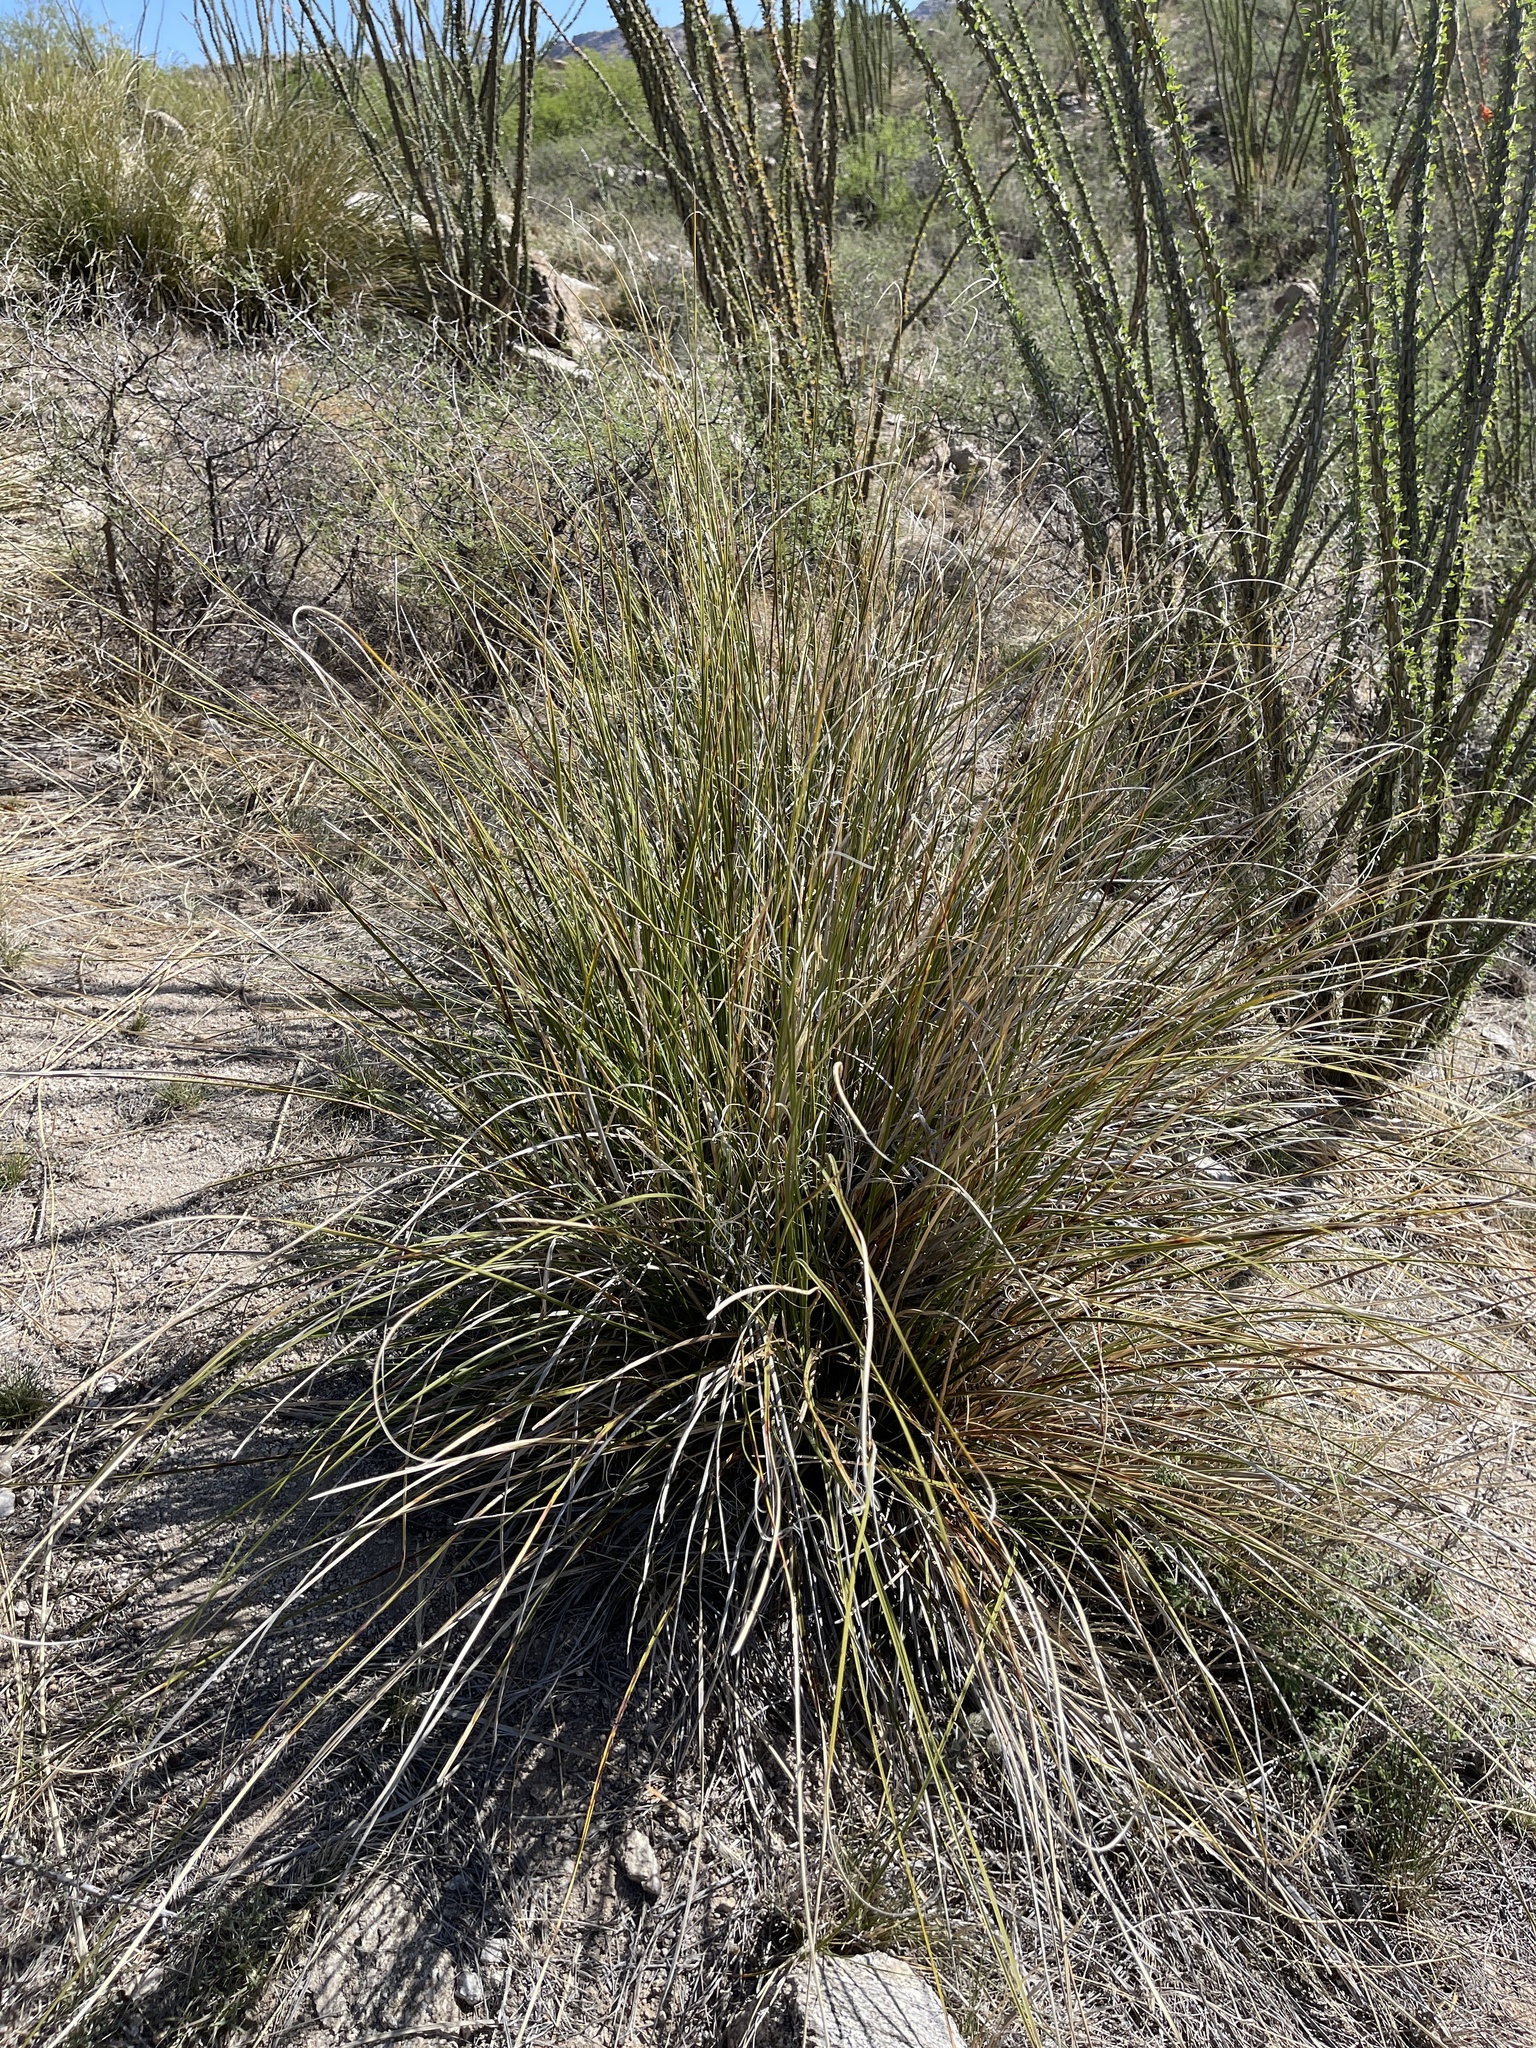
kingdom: Plantae
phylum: Tracheophyta
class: Liliopsida
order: Asparagales
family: Asparagaceae
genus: Nolina
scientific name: Nolina microcarpa
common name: Bear-grass
